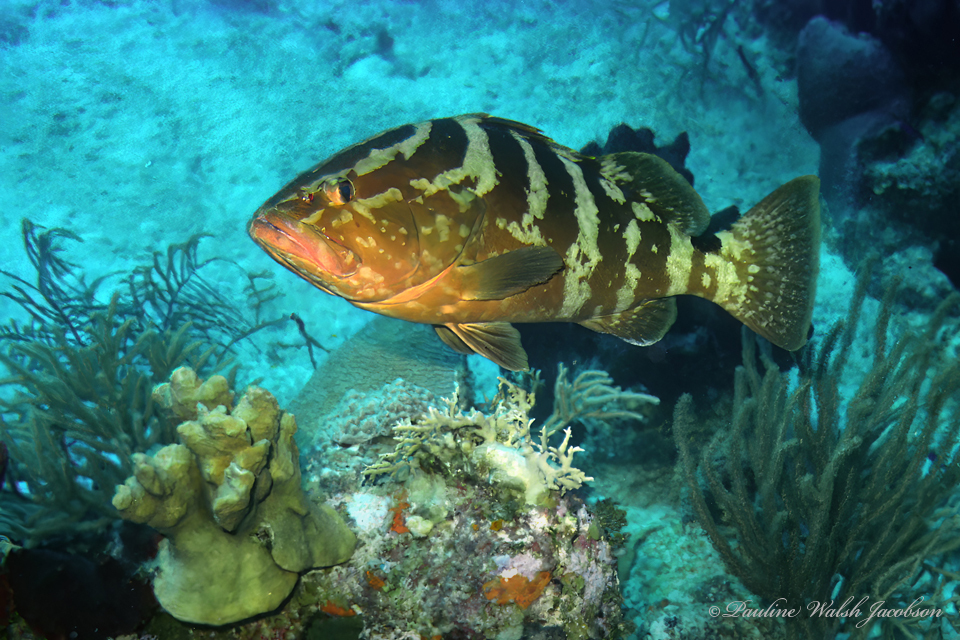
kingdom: Animalia
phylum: Chordata
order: Perciformes
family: Serranidae
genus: Epinephelus
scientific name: Epinephelus striatus
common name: Nassau grouper
